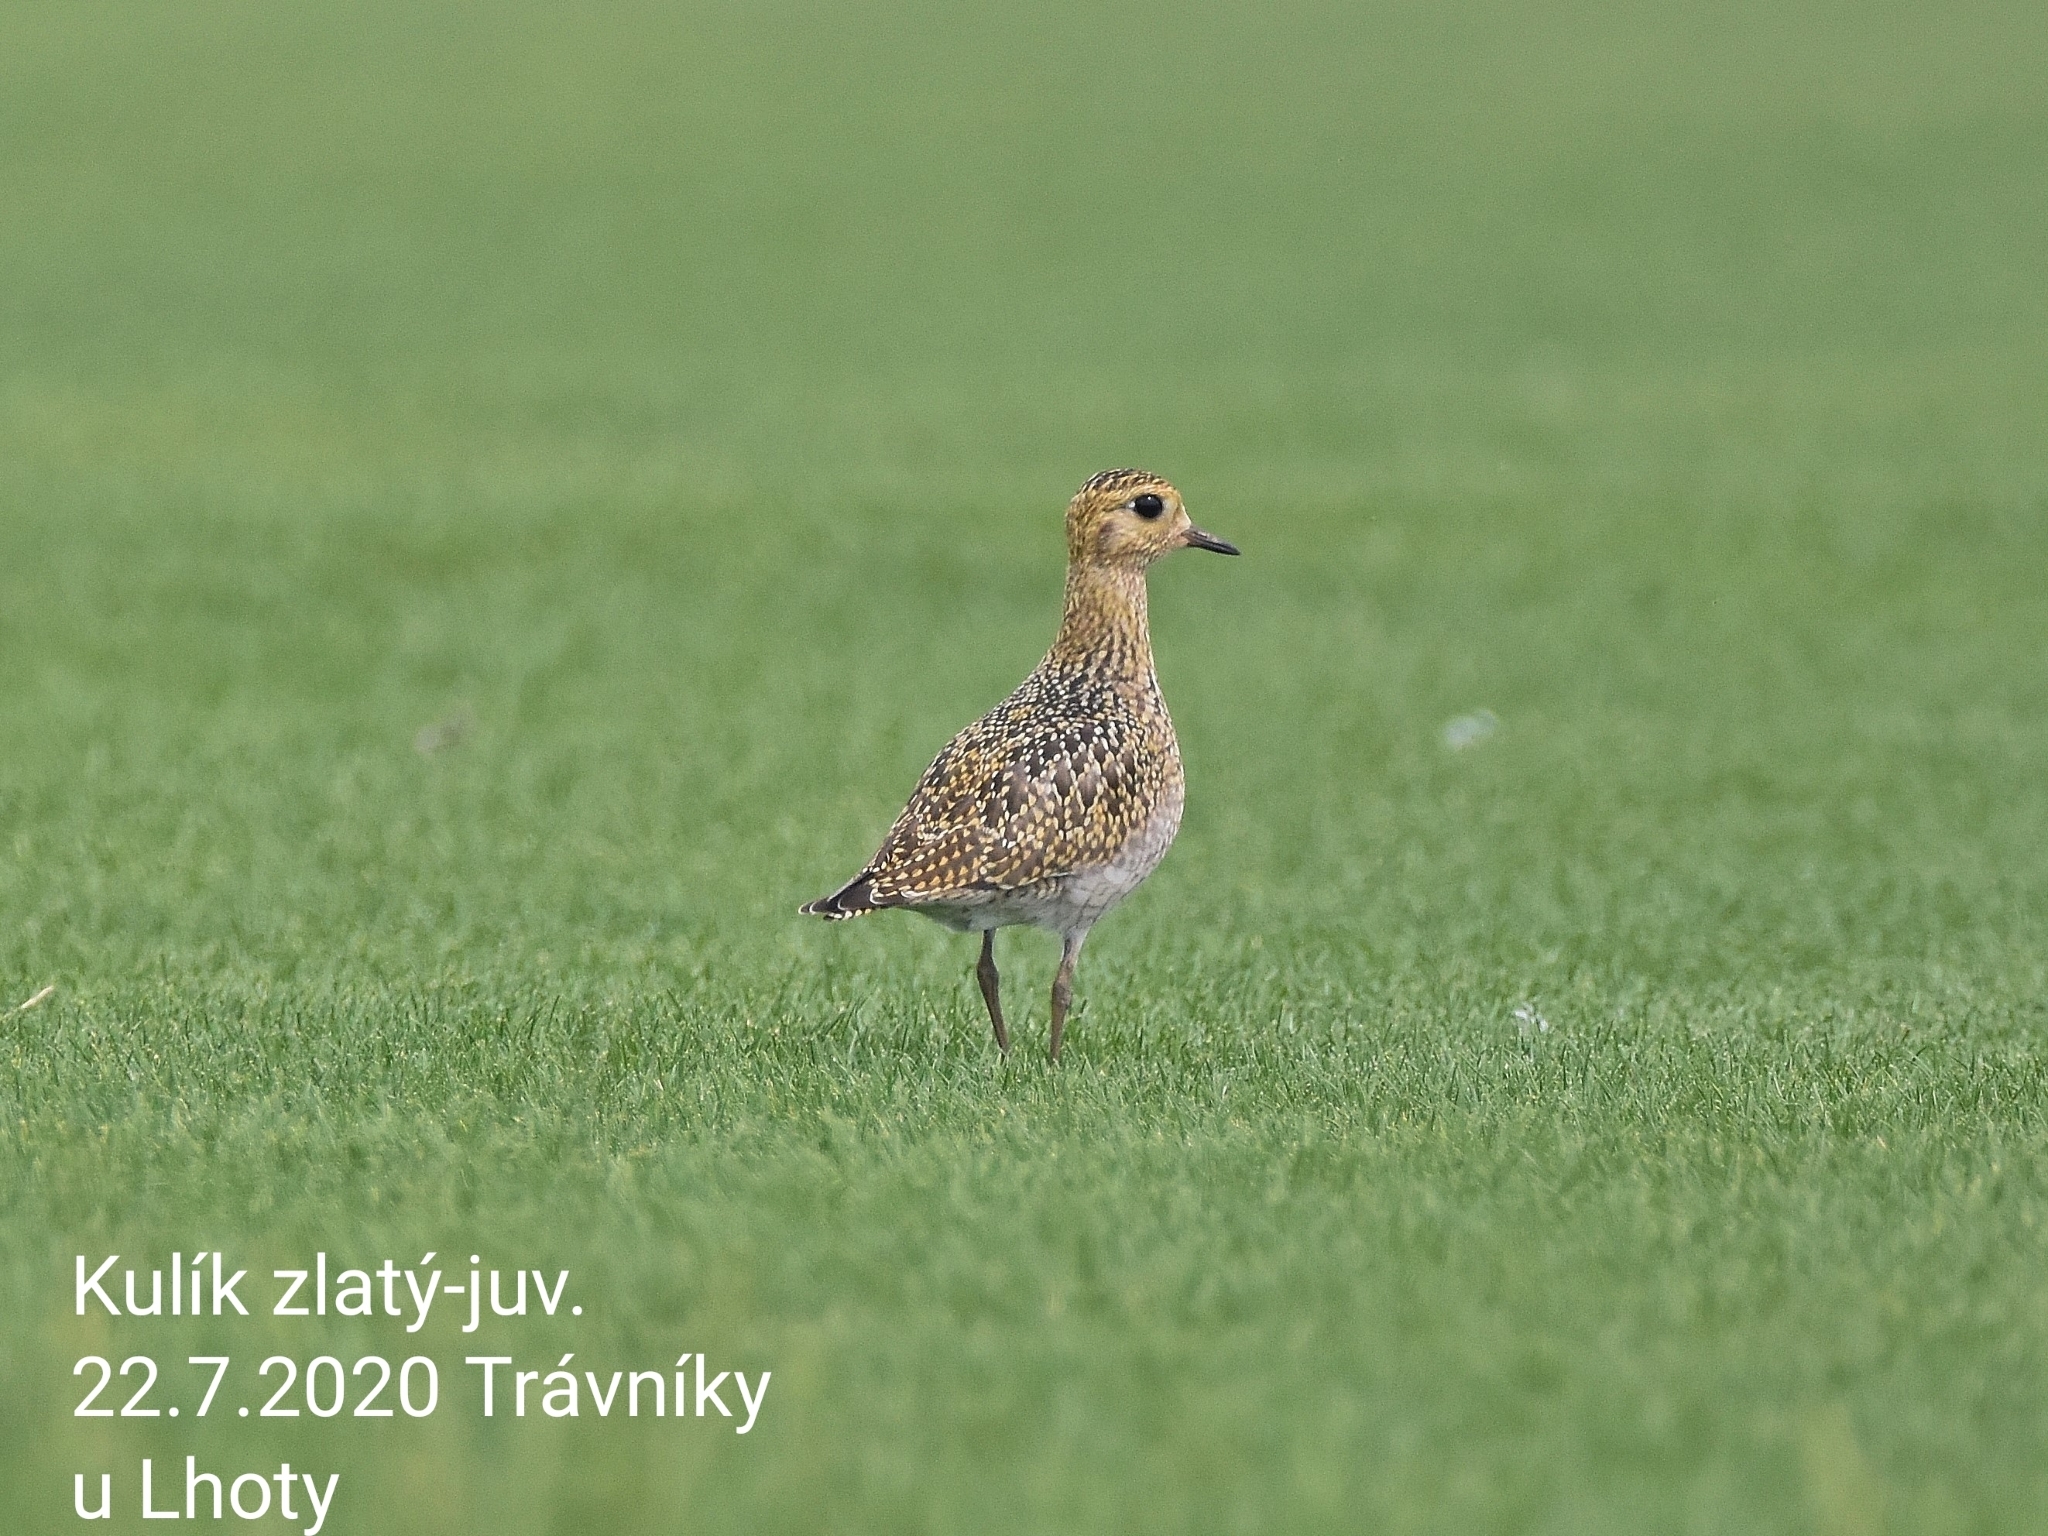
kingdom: Animalia
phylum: Chordata
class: Aves
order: Charadriiformes
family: Charadriidae
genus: Pluvialis
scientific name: Pluvialis apricaria
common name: European golden plover
